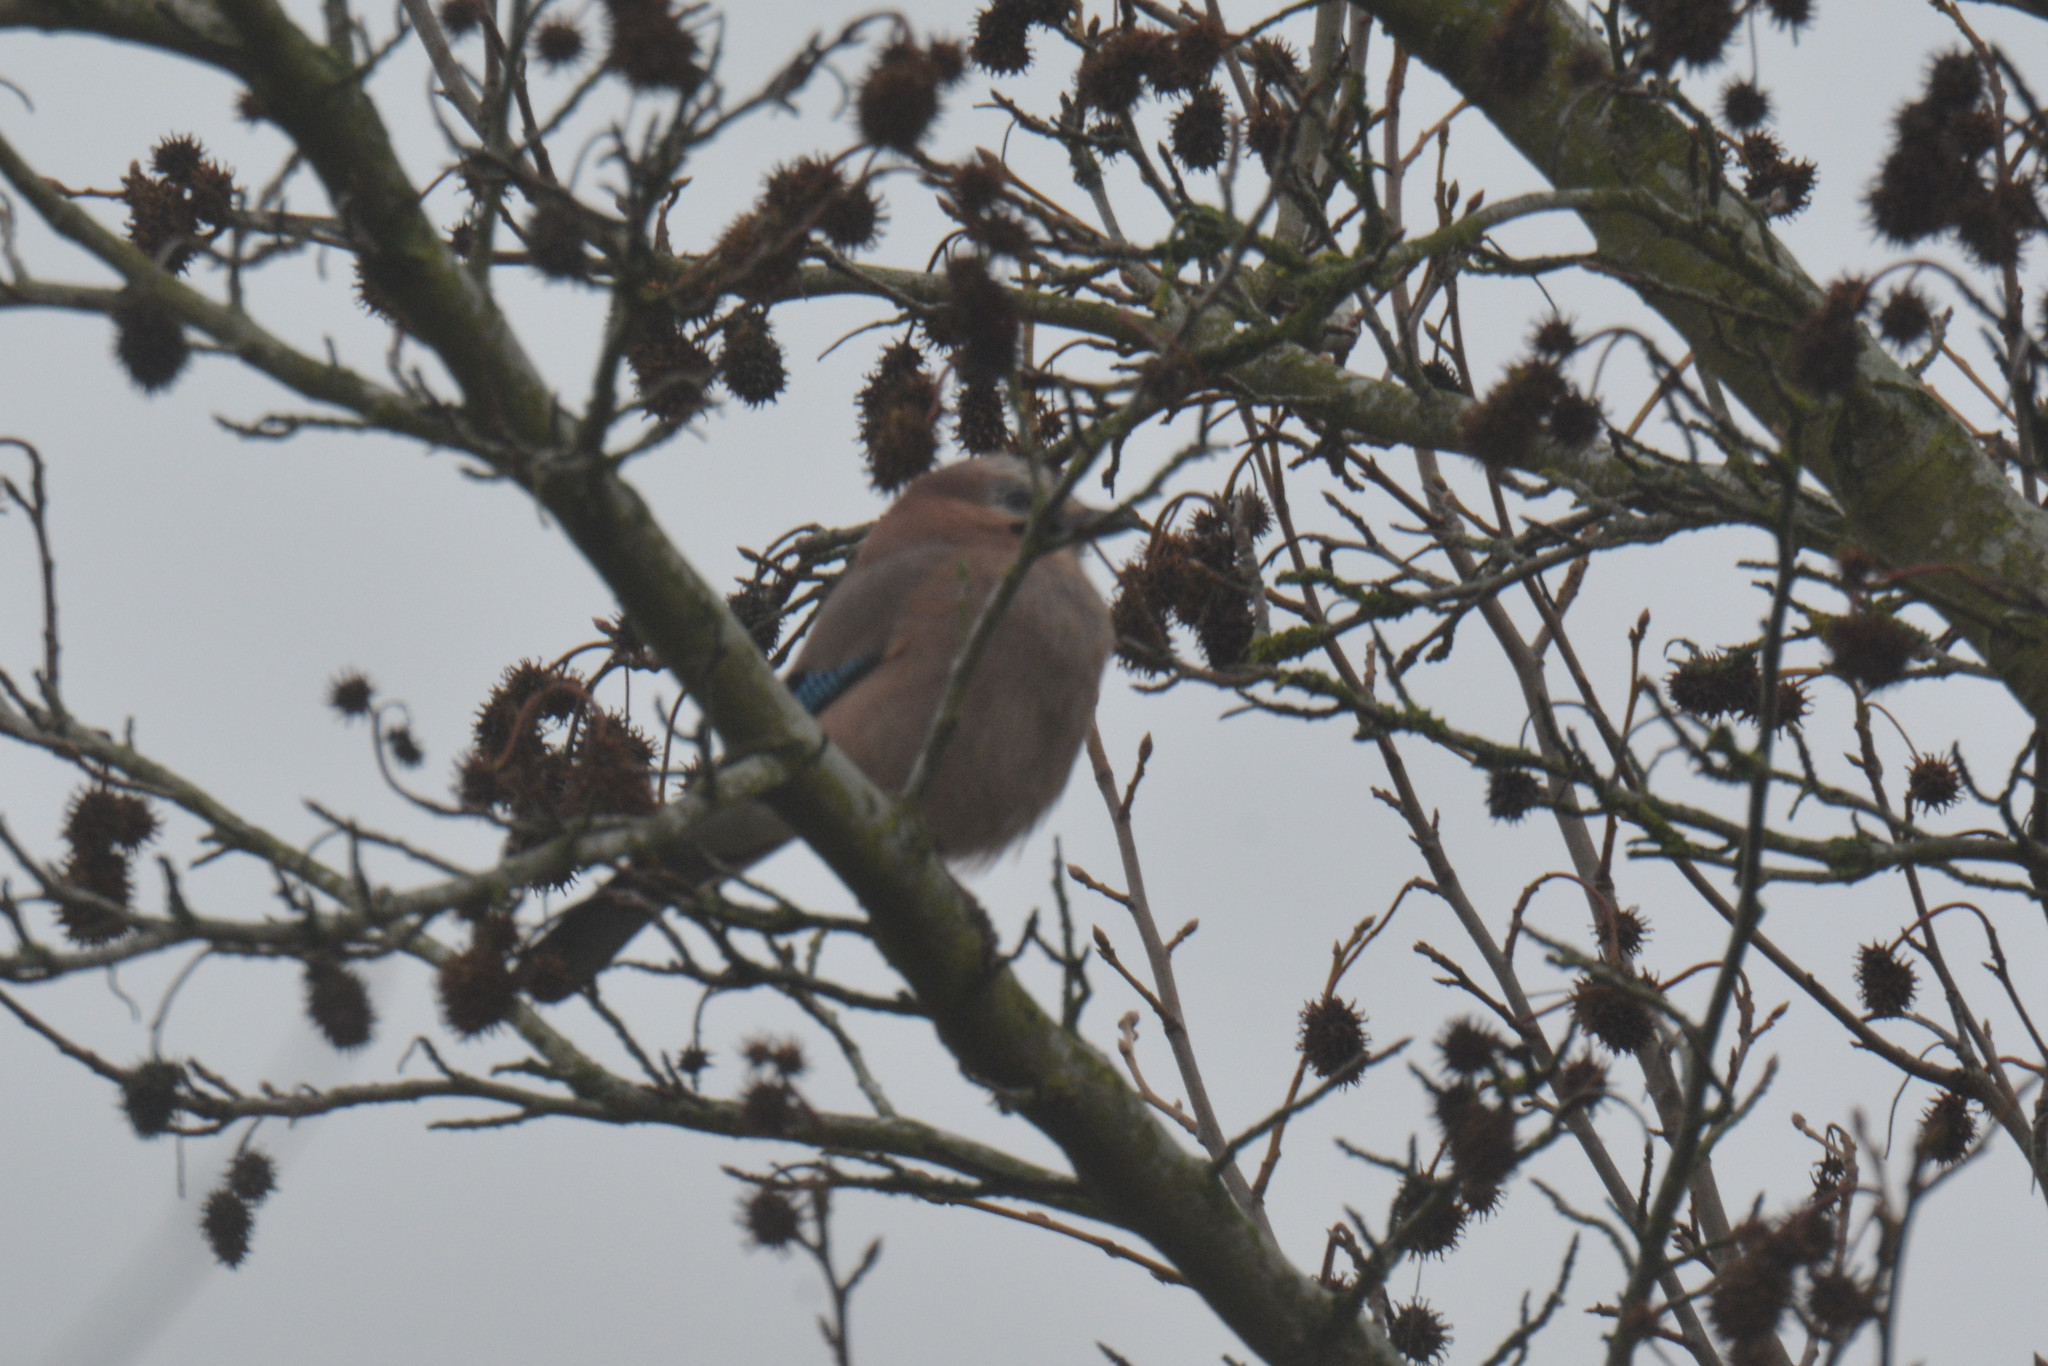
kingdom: Animalia
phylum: Chordata
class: Aves
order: Passeriformes
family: Corvidae
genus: Garrulus
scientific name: Garrulus glandarius
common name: Eurasian jay
